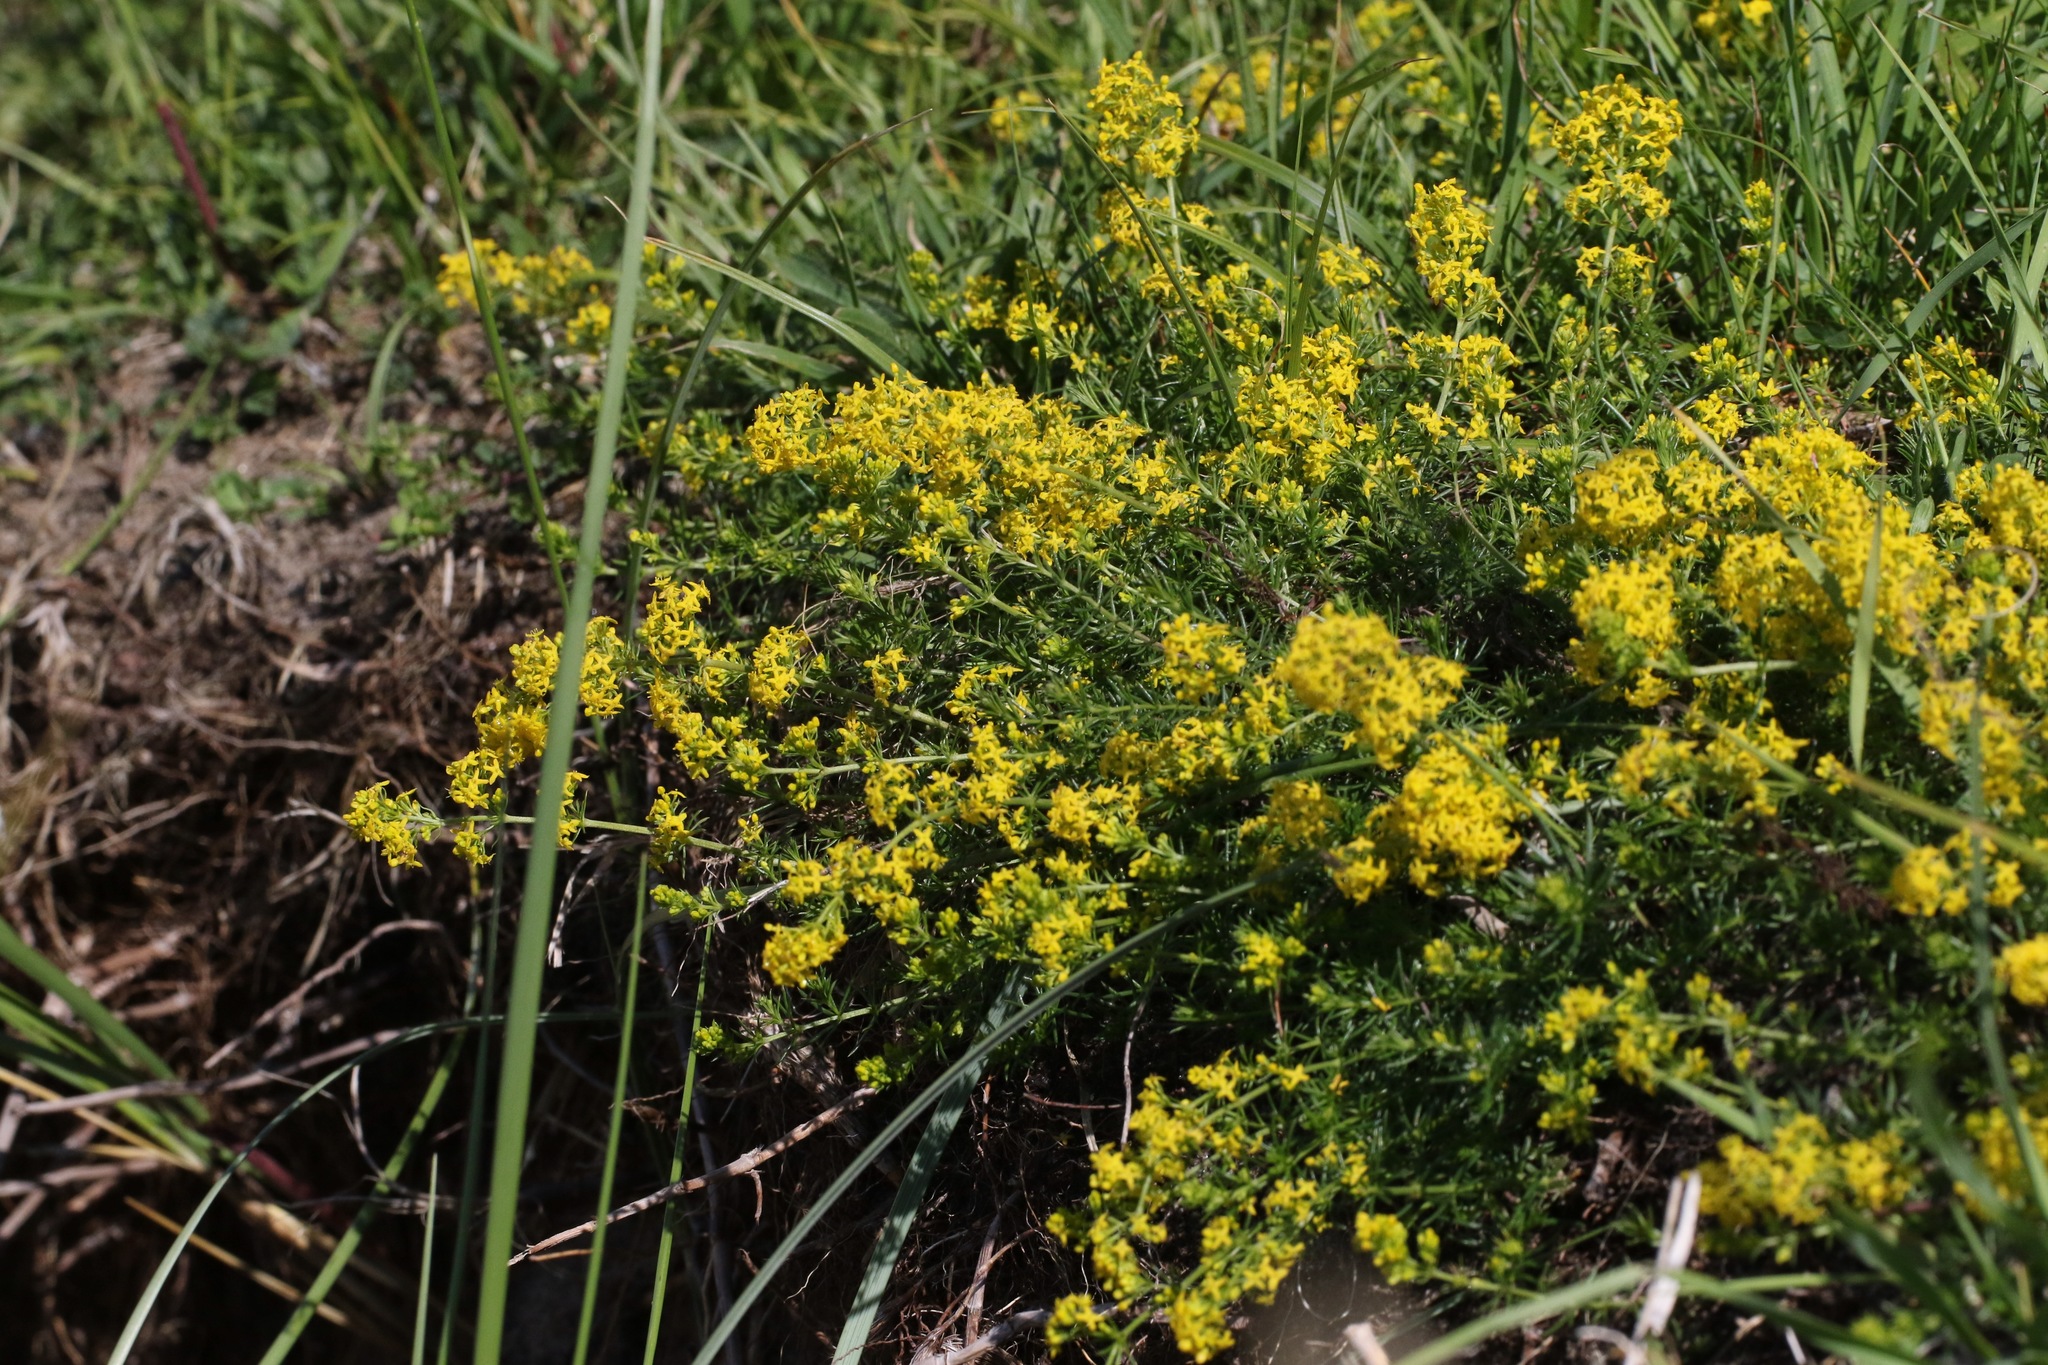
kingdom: Plantae
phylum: Tracheophyta
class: Magnoliopsida
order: Gentianales
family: Rubiaceae
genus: Galium
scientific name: Galium verum
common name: Lady's bedstraw
